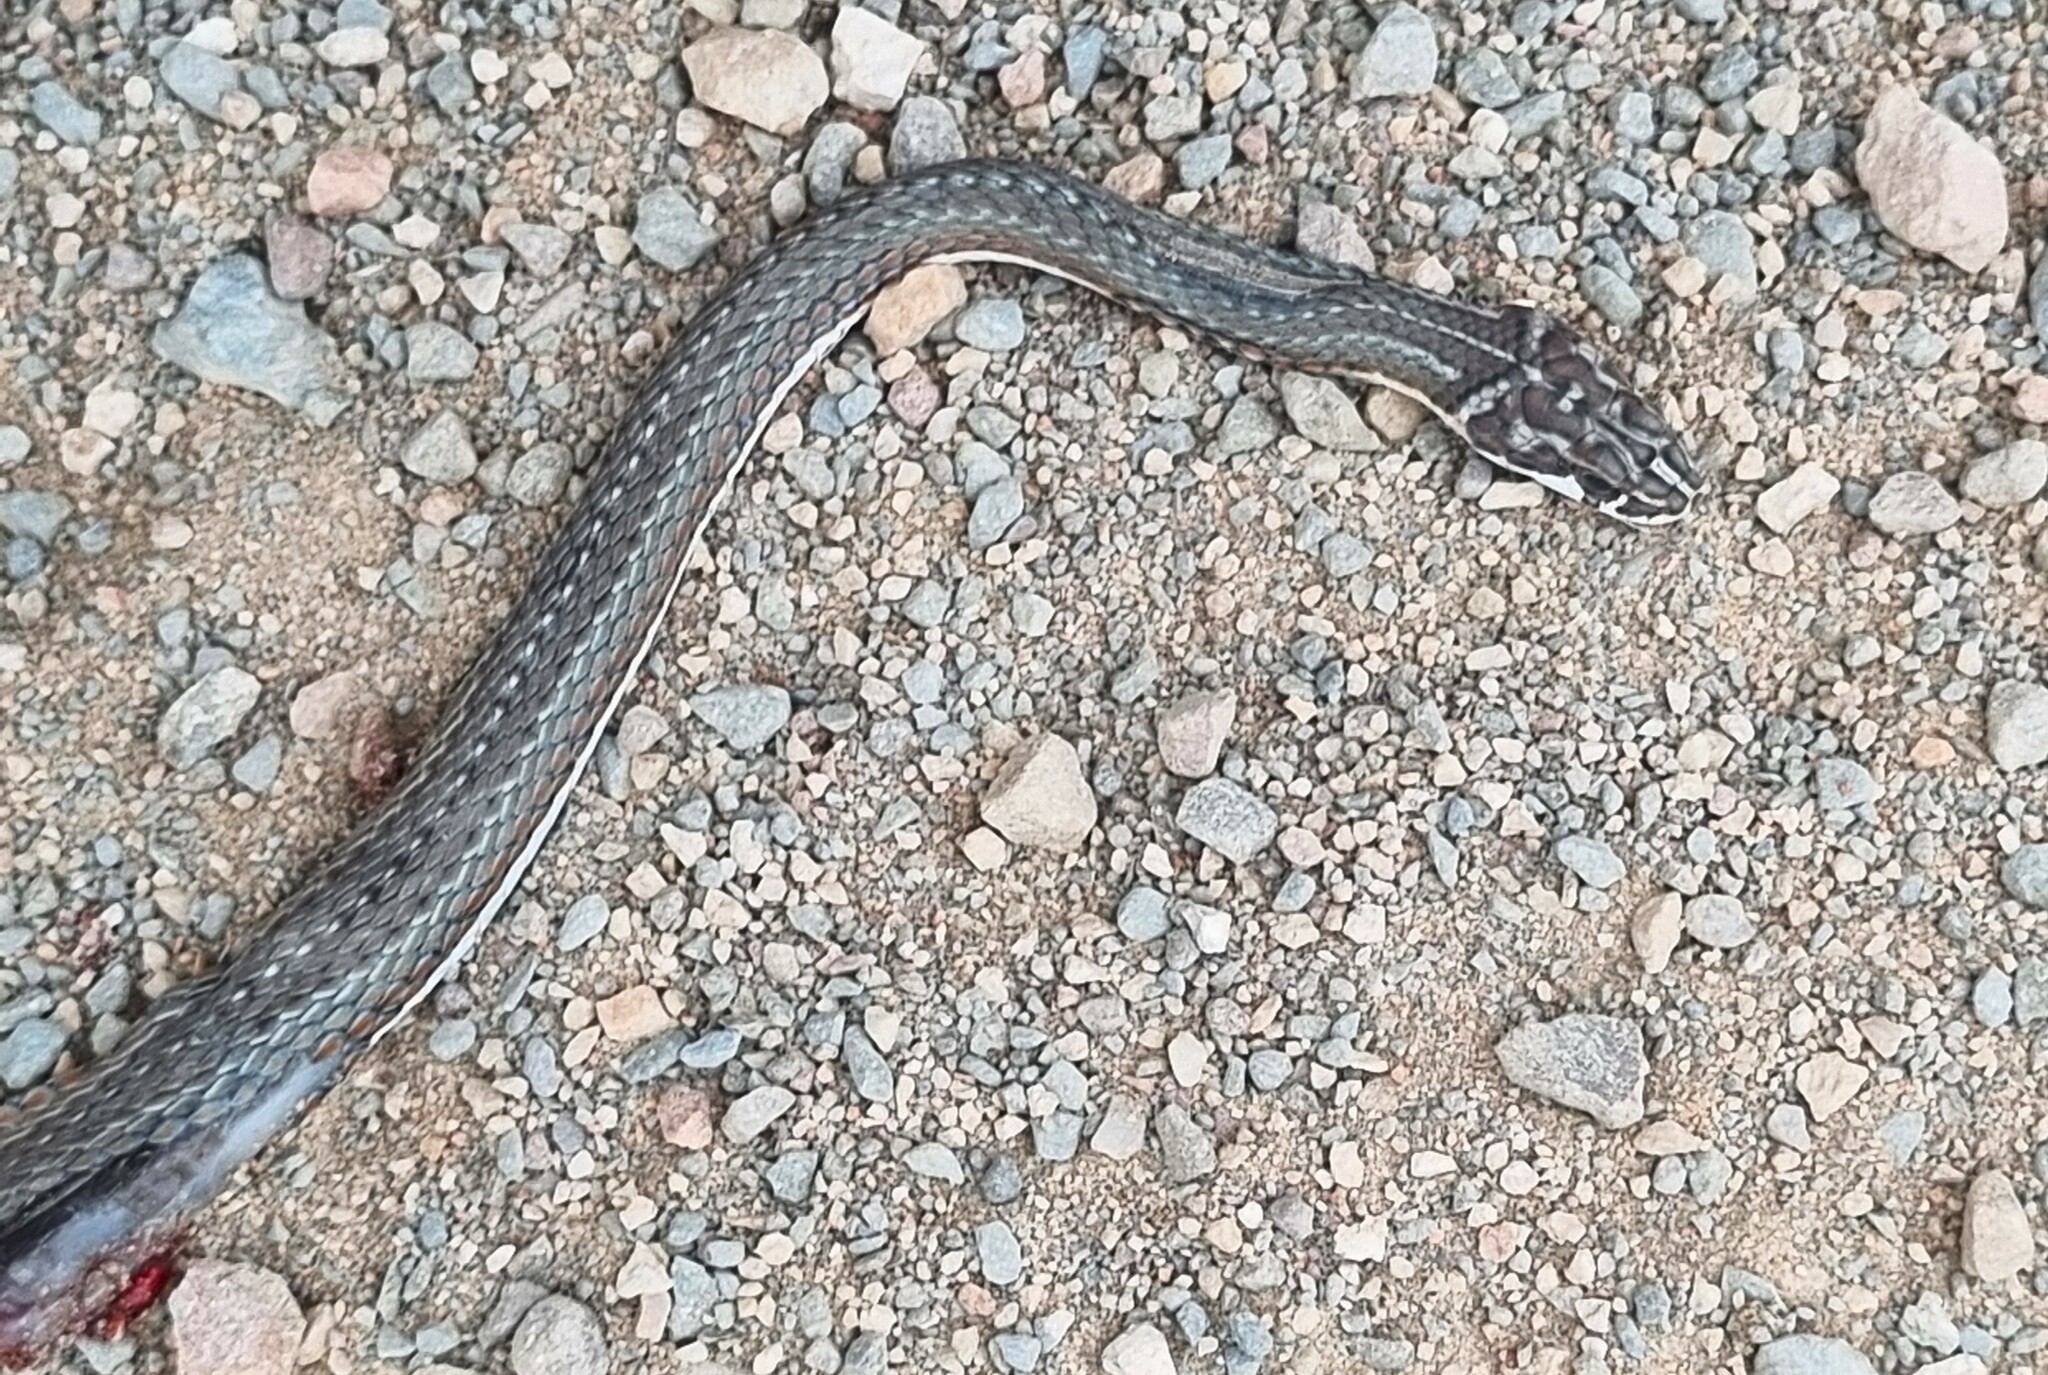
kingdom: Animalia
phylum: Chordata
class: Squamata
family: Psammophiidae
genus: Psammophis
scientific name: Psammophis notostictus
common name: Karoo sand snake
